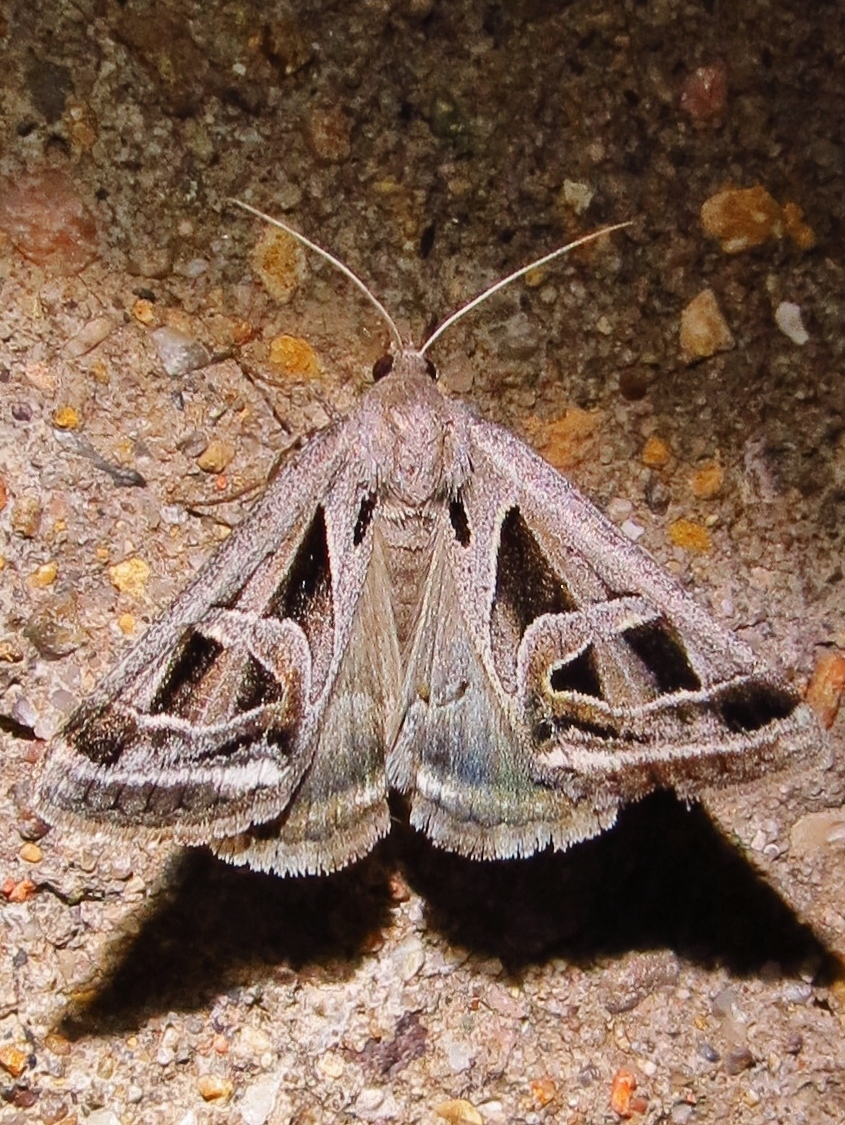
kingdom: Animalia
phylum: Arthropoda
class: Insecta
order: Lepidoptera
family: Erebidae
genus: Callistege
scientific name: Callistege intercalaris
